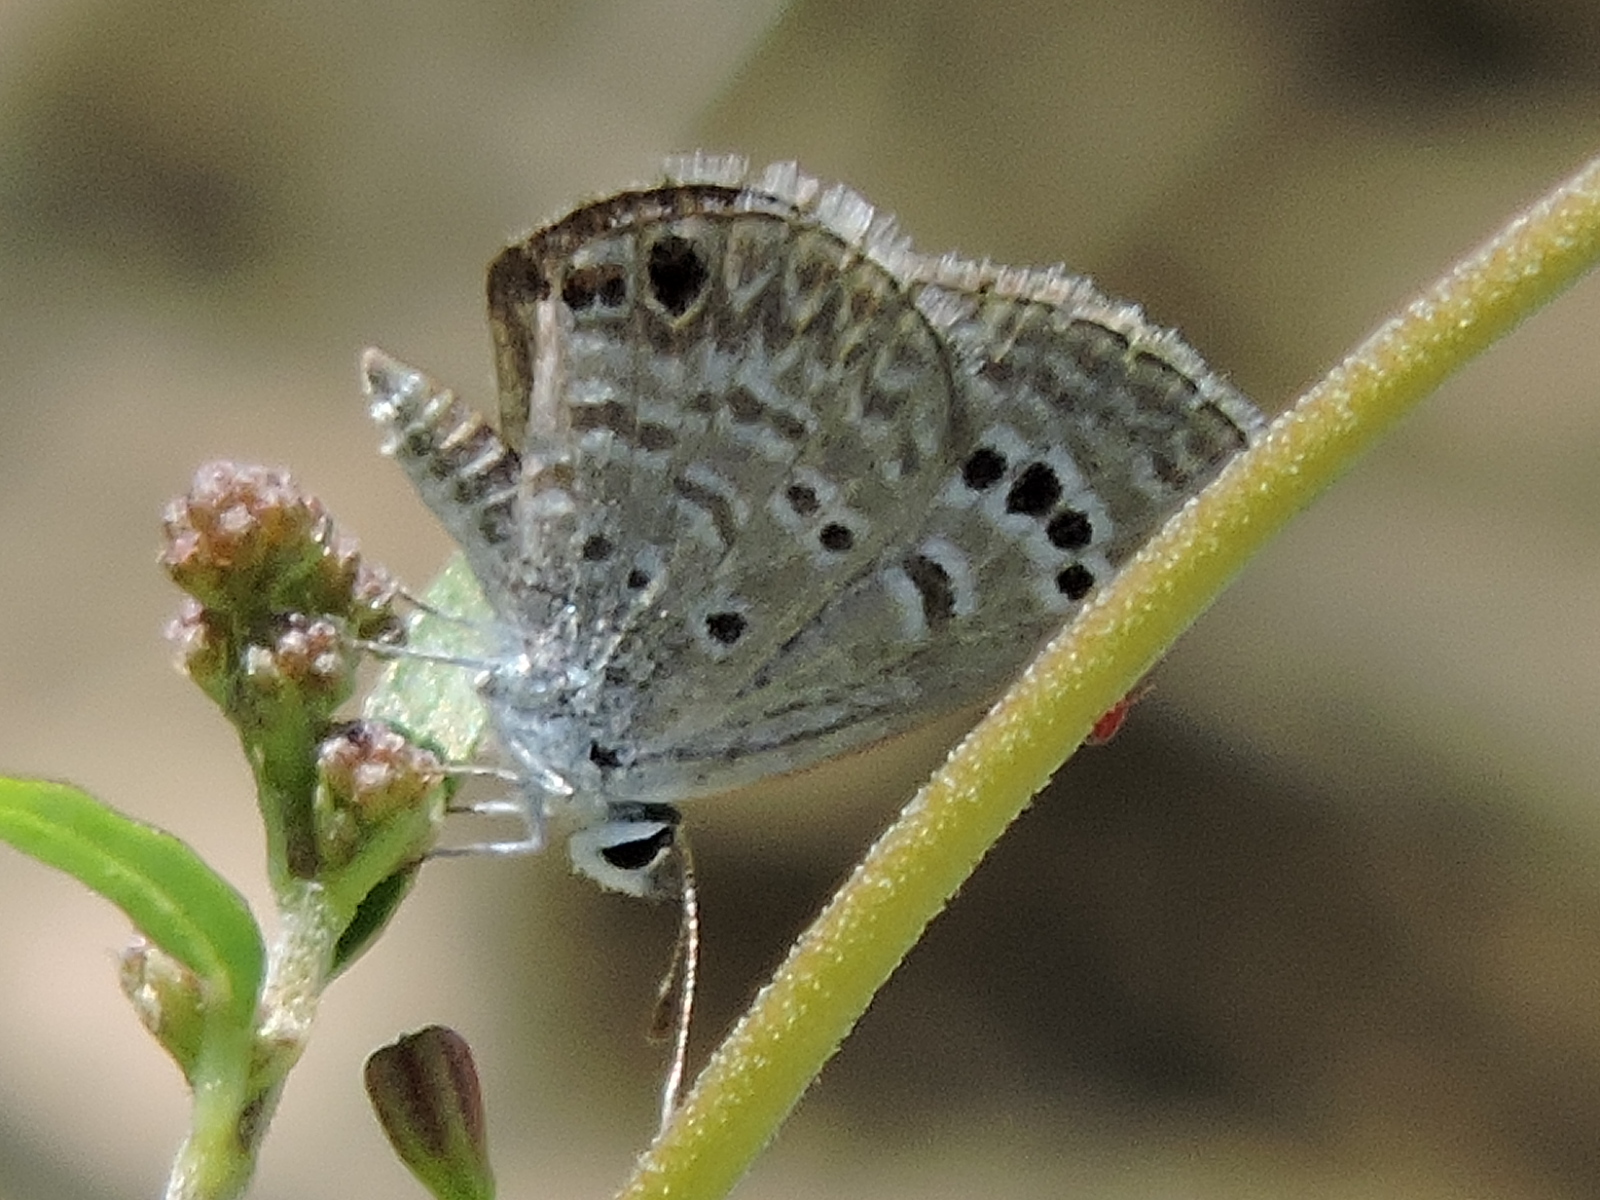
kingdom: Animalia
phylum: Arthropoda
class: Insecta
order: Lepidoptera
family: Lycaenidae
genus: Echinargus
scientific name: Echinargus isola
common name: Reakirt's blue
